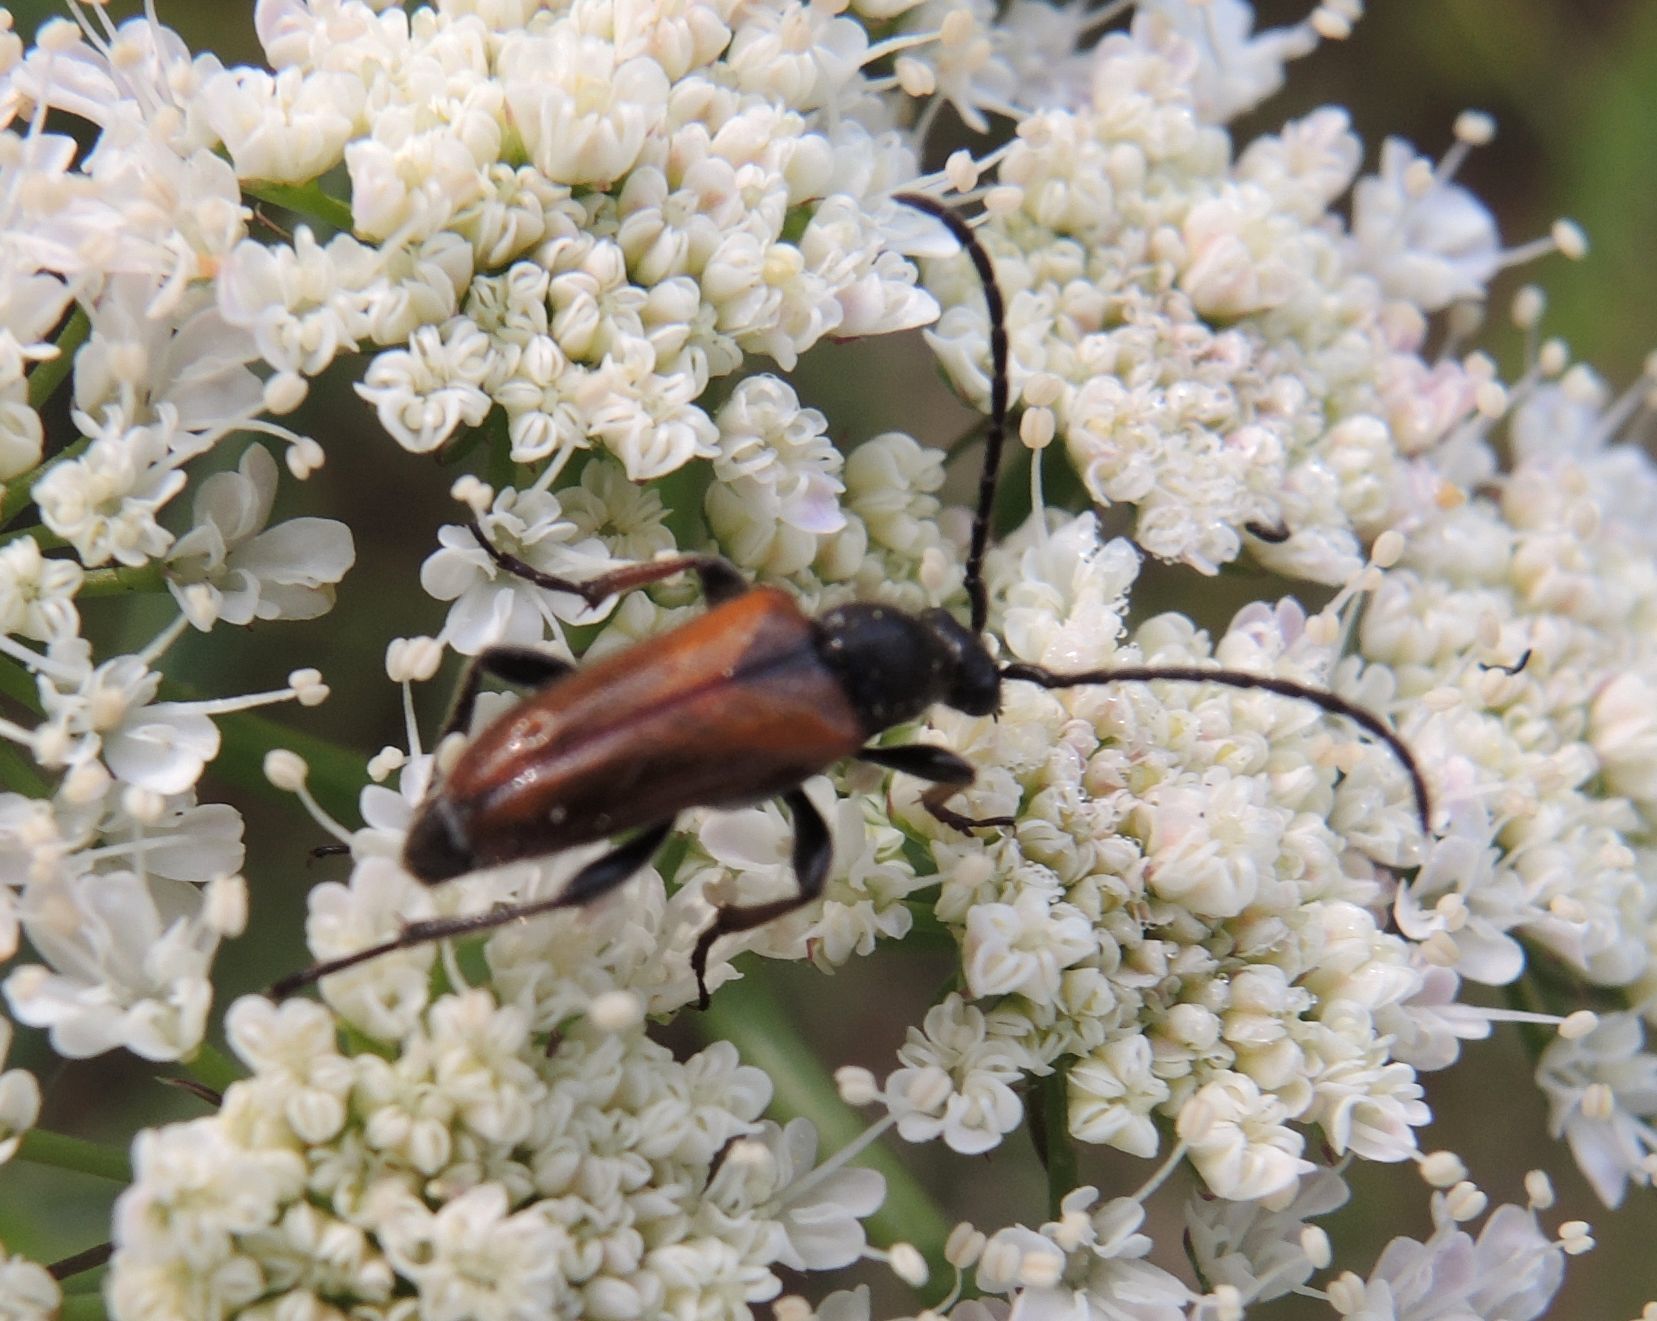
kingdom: Animalia
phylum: Arthropoda
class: Insecta
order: Coleoptera
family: Cerambycidae
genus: Pseudovadonia
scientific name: Pseudovadonia livida
